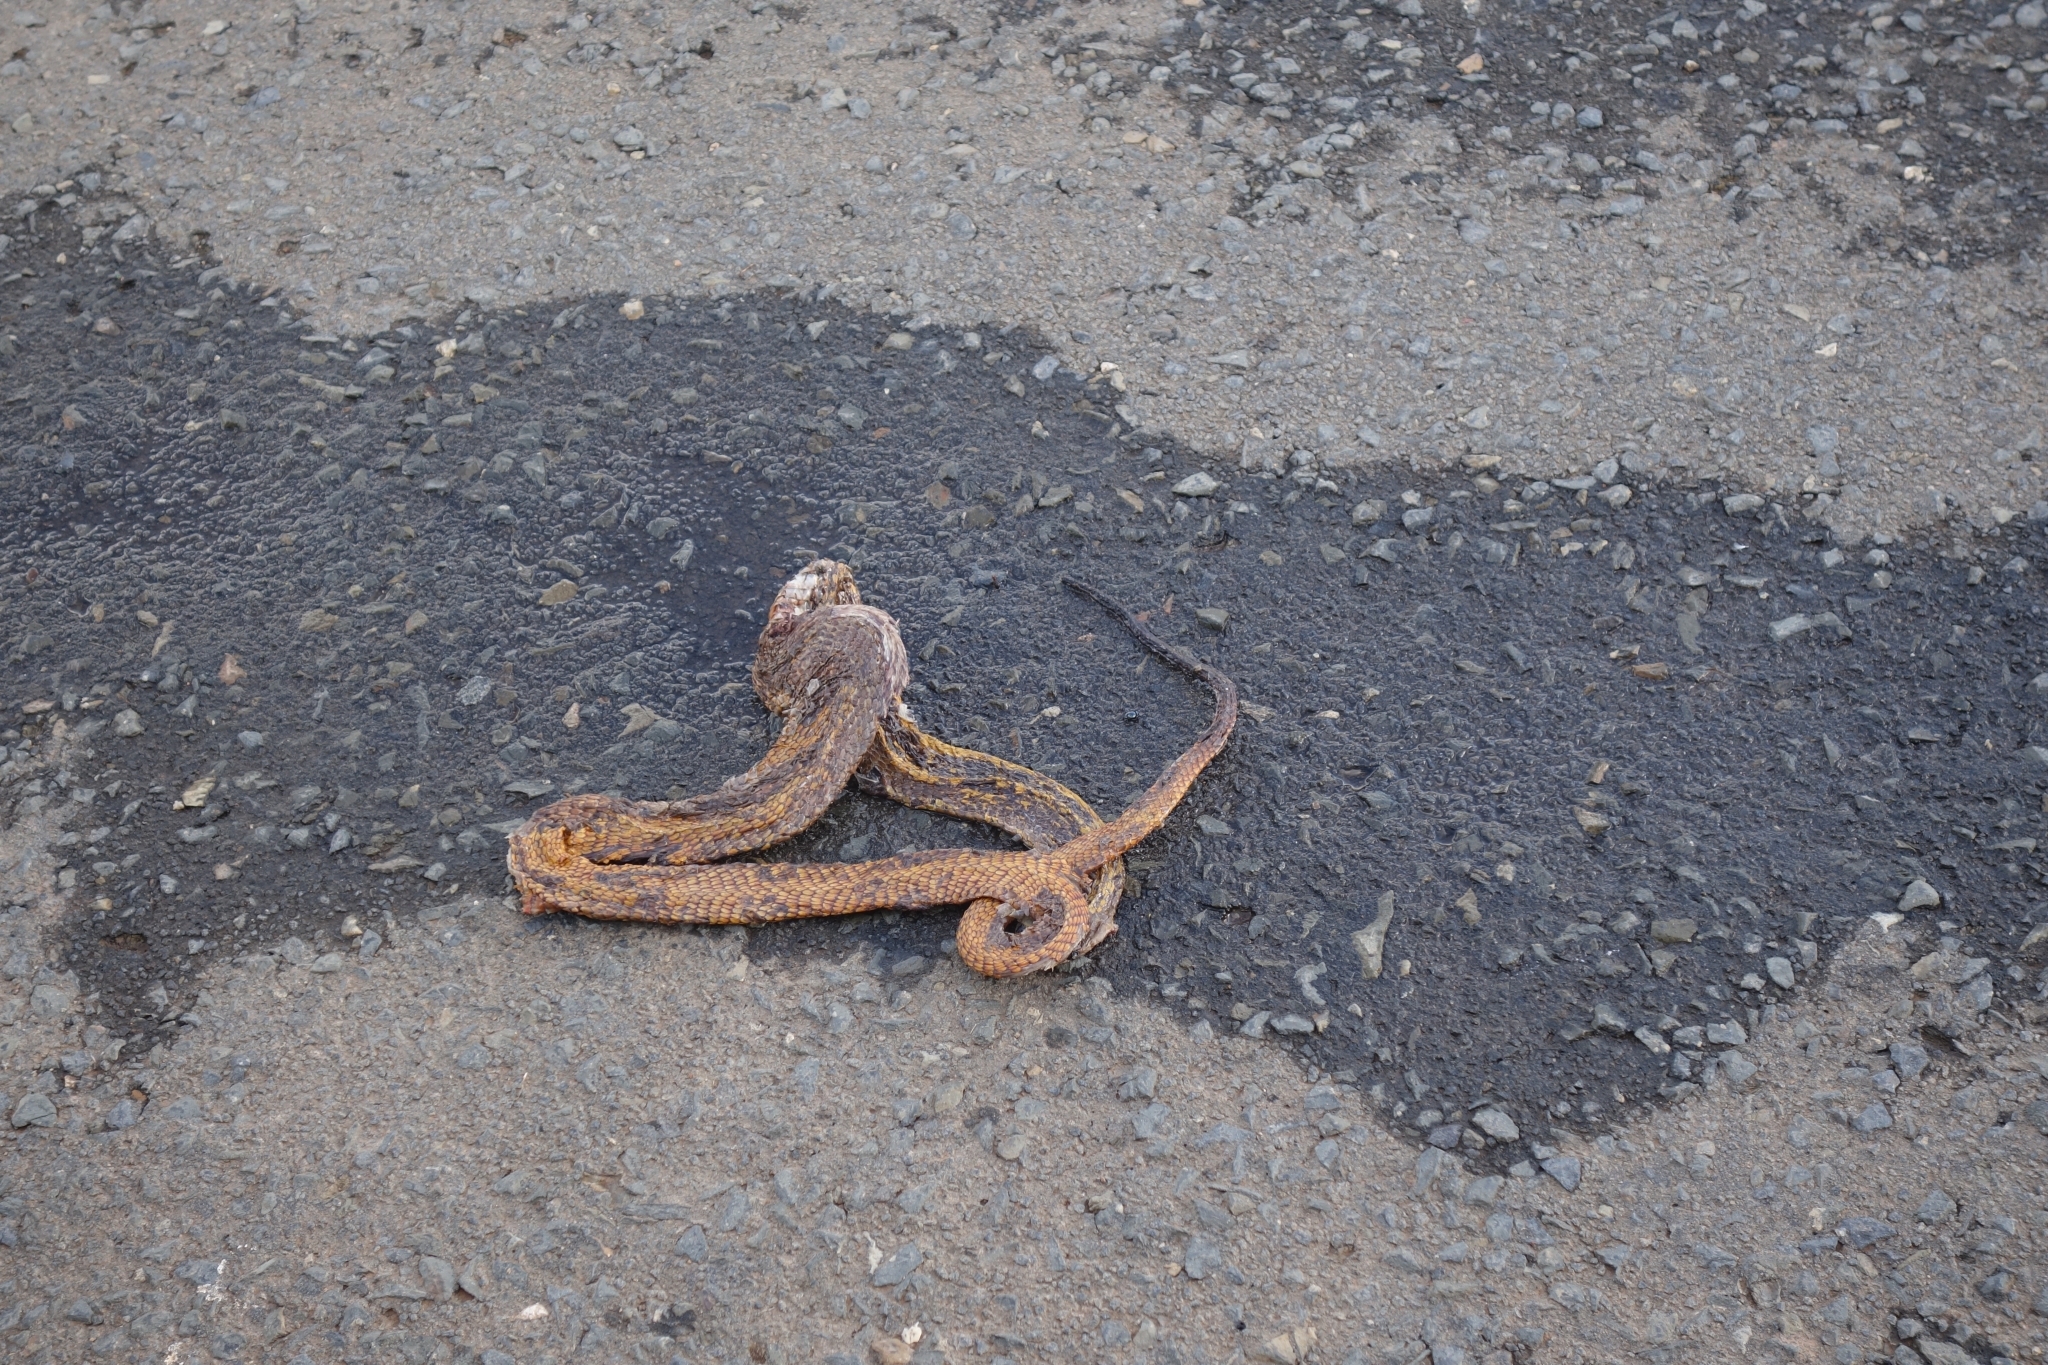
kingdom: Animalia
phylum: Chordata
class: Squamata
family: Elapidae
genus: Naja
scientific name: Naja nivea
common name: Cape cobra
